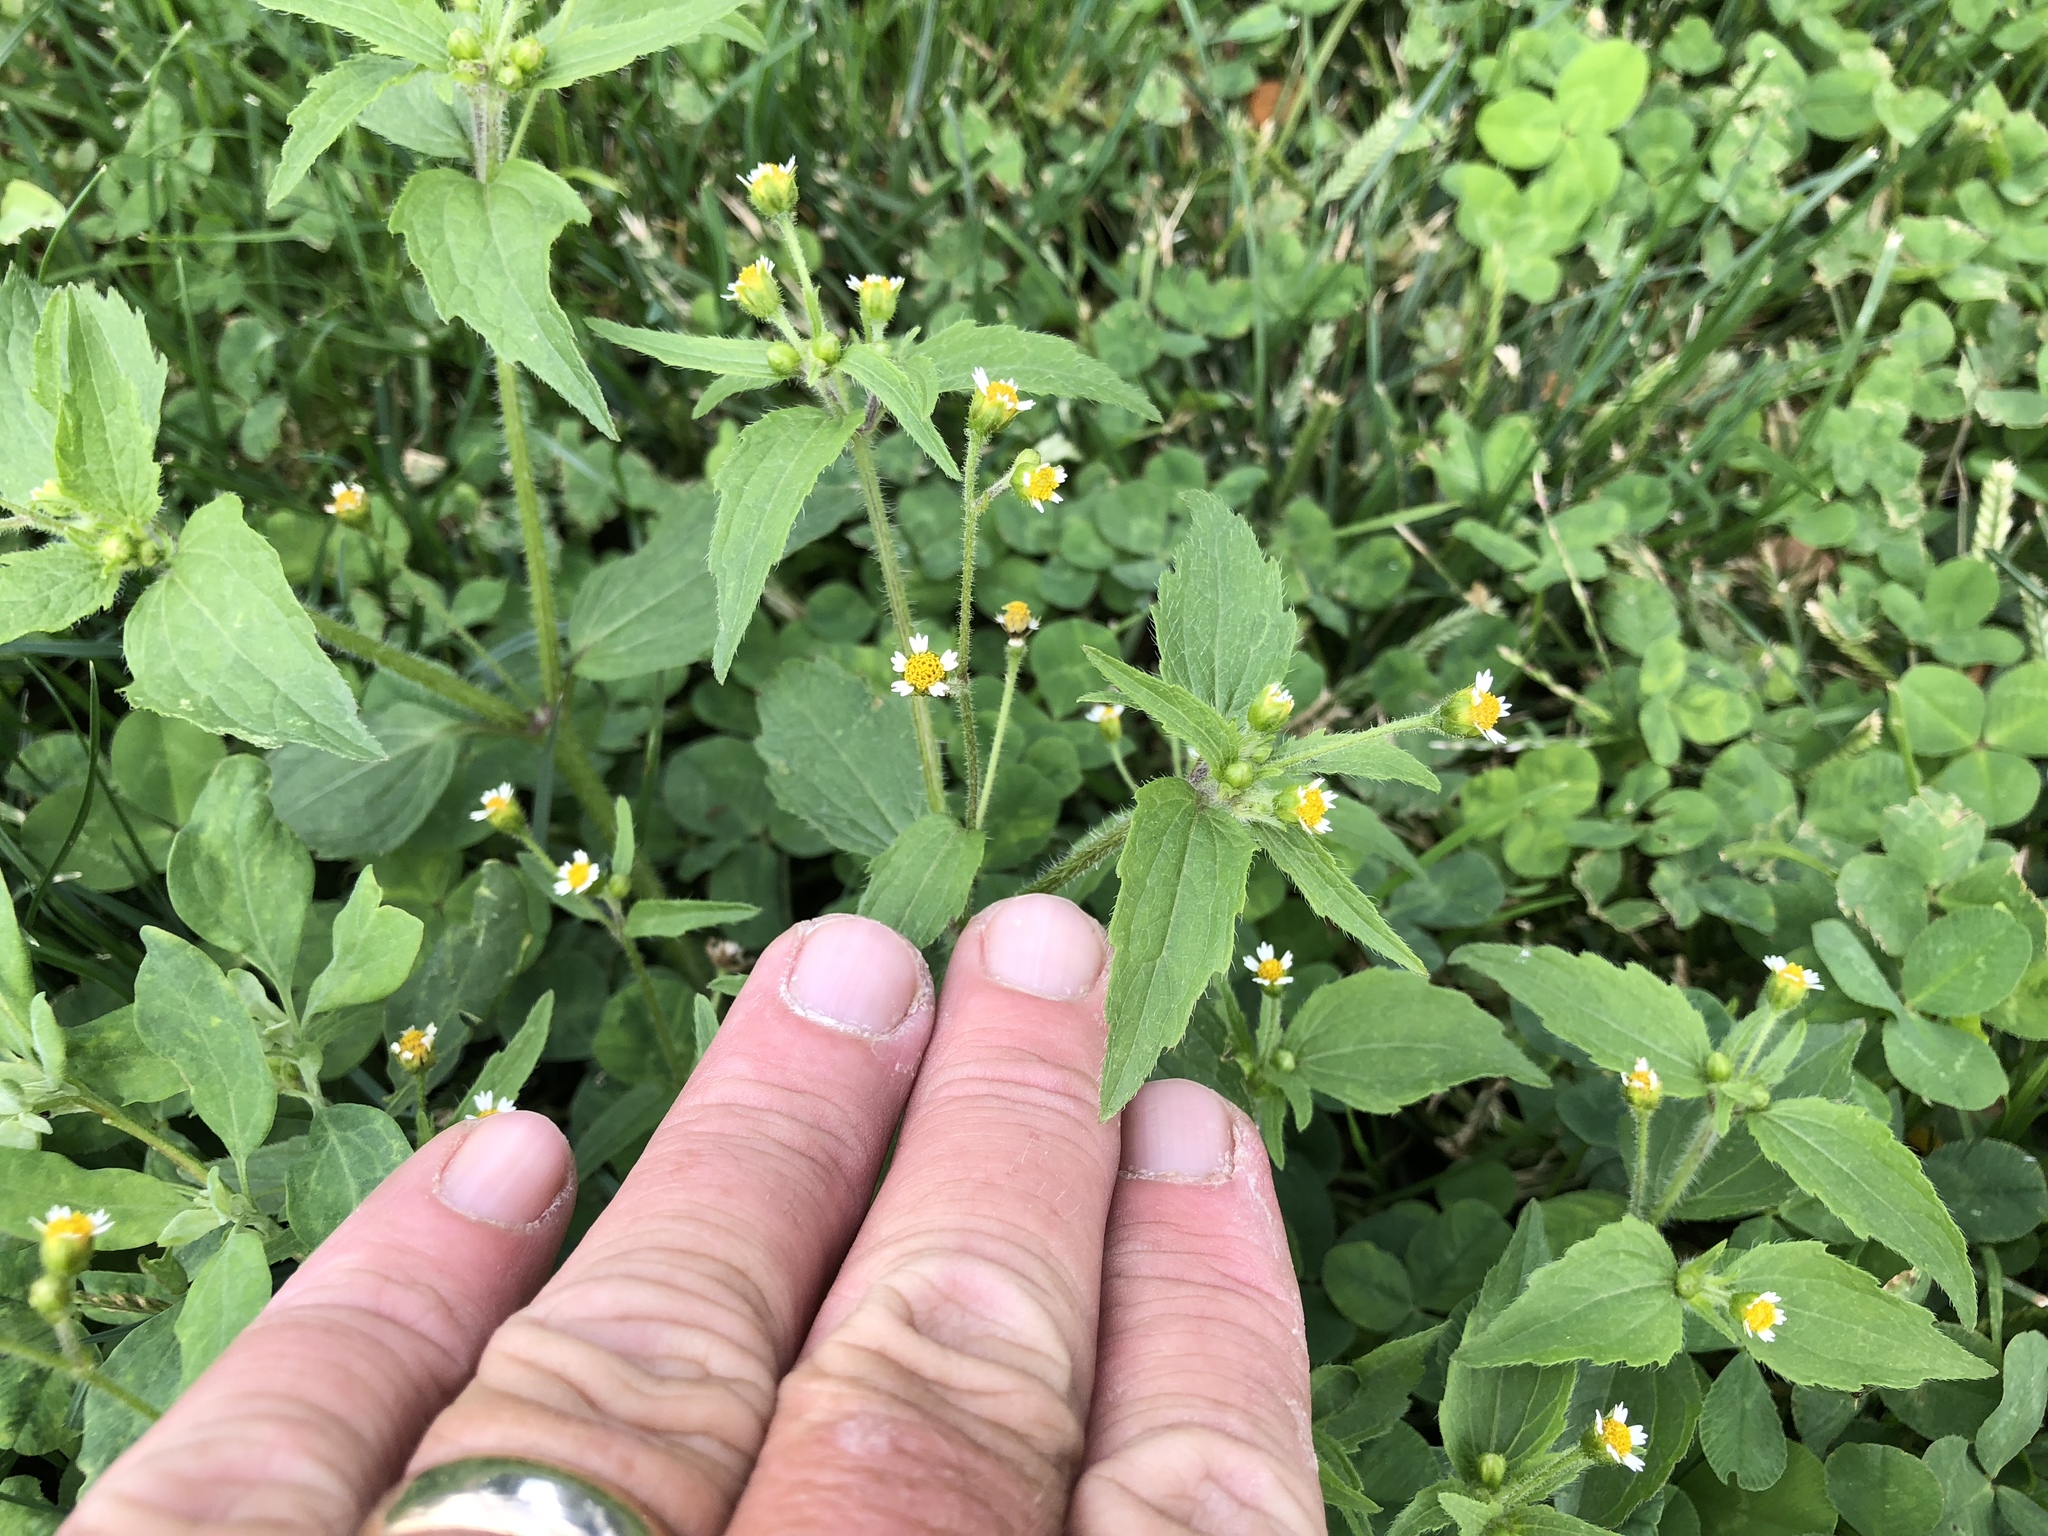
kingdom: Plantae
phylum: Tracheophyta
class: Magnoliopsida
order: Asterales
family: Asteraceae
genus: Galinsoga
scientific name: Galinsoga quadriradiata
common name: Shaggy soldier
